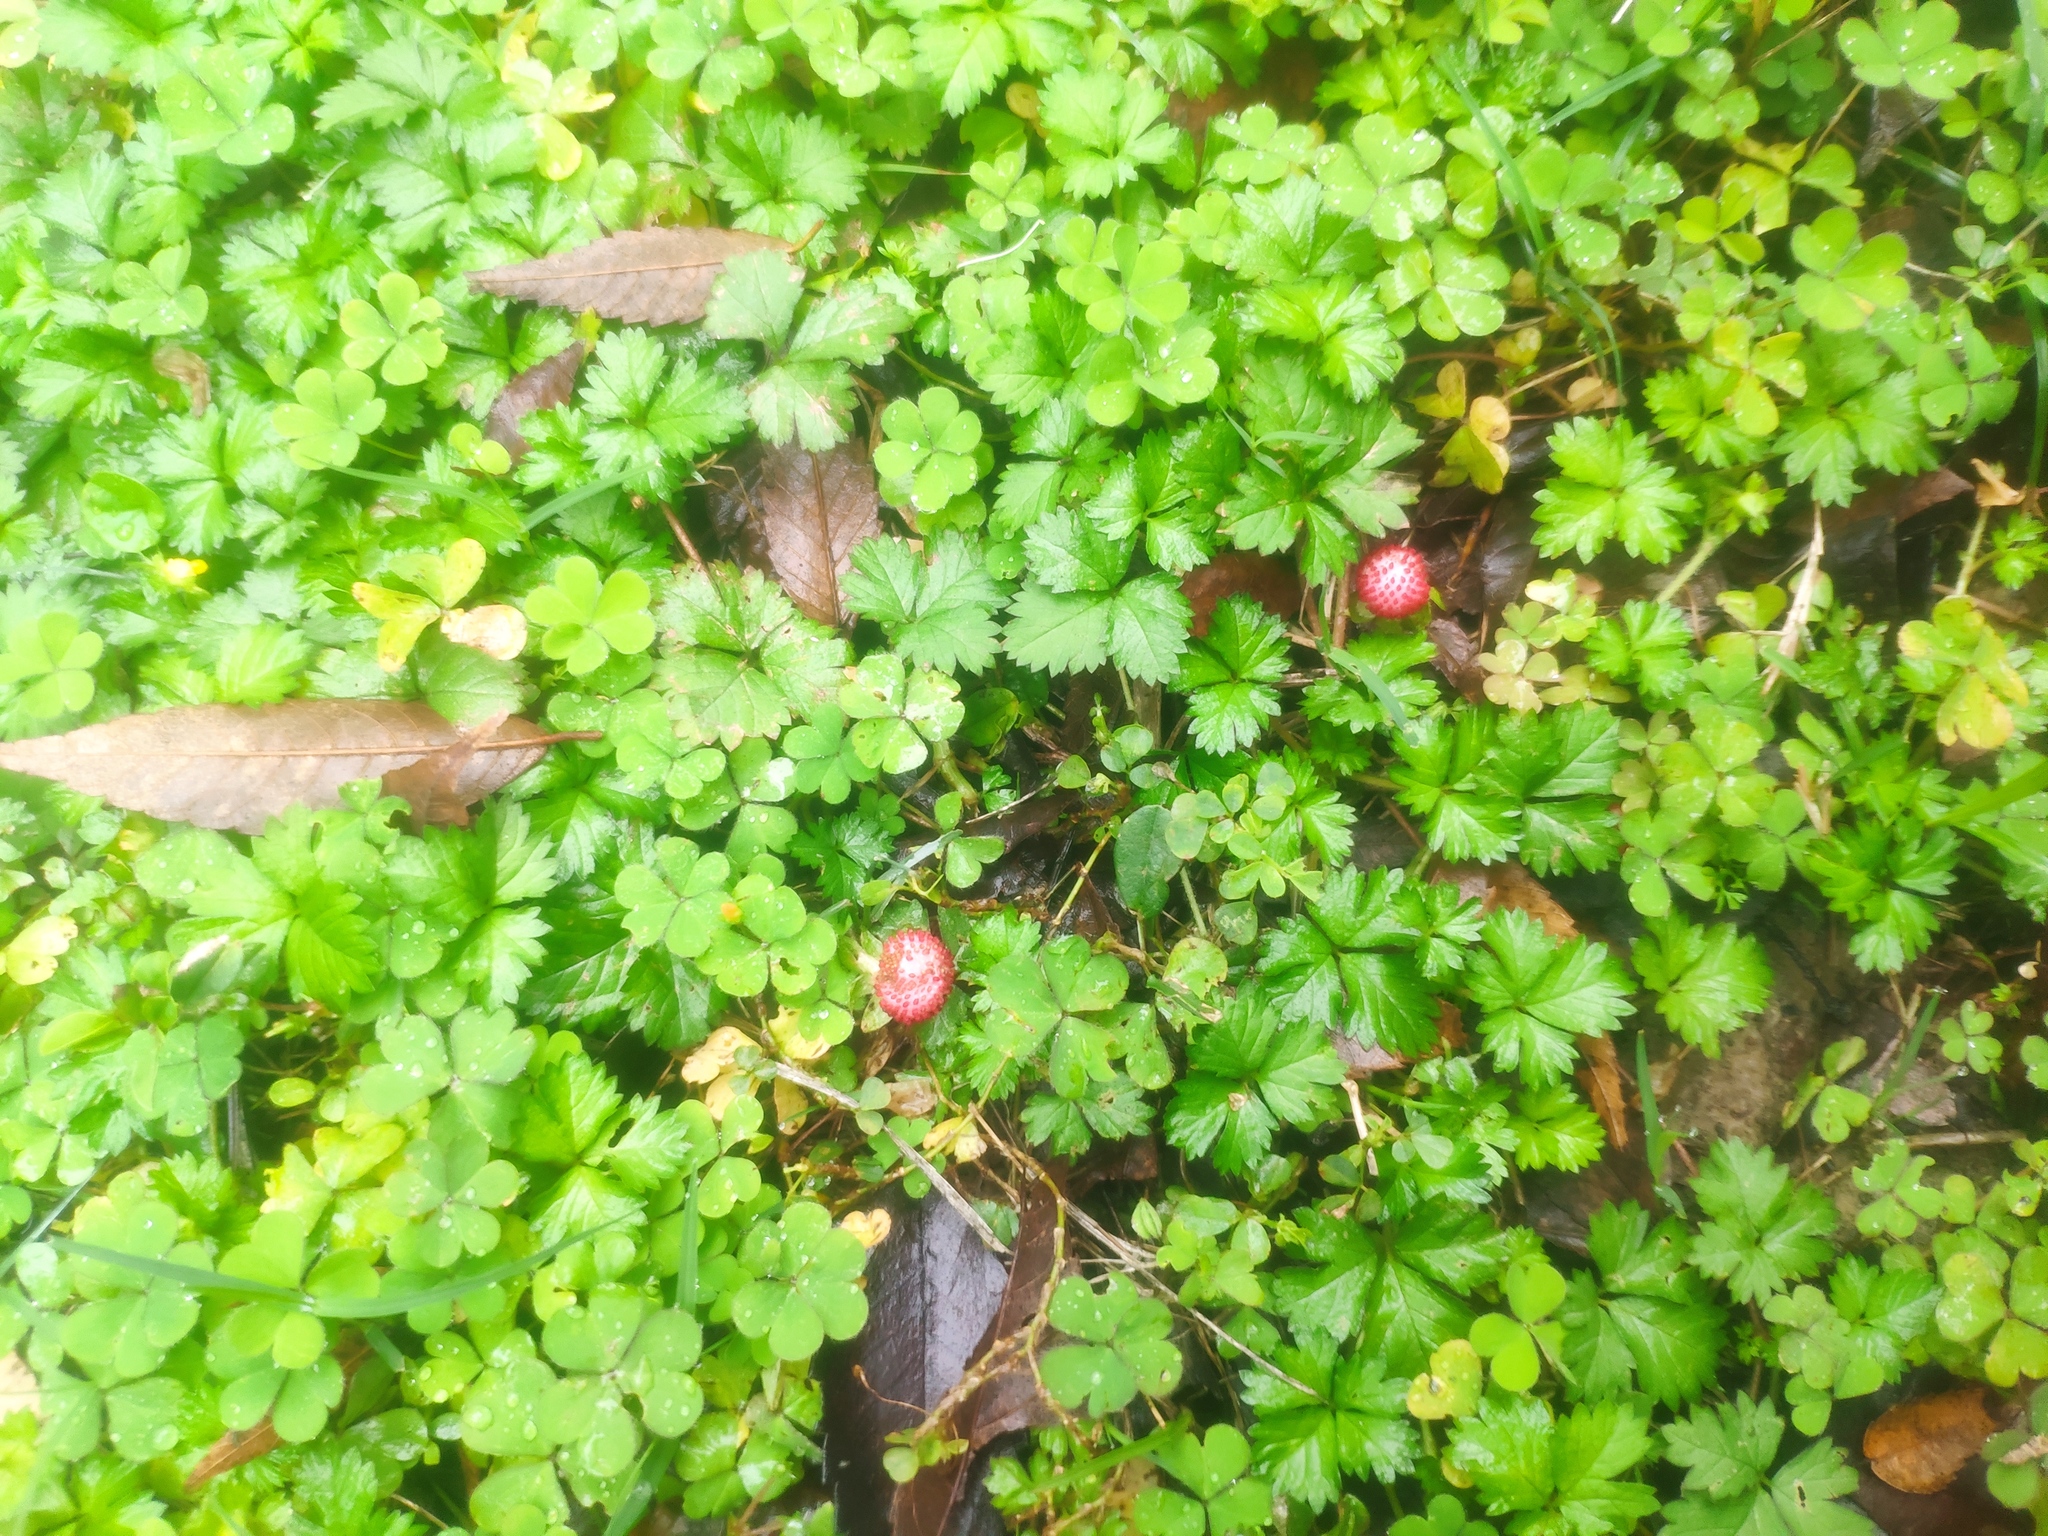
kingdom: Plantae
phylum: Tracheophyta
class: Magnoliopsida
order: Rosales
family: Rosaceae
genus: Potentilla
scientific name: Potentilla wallichiana
